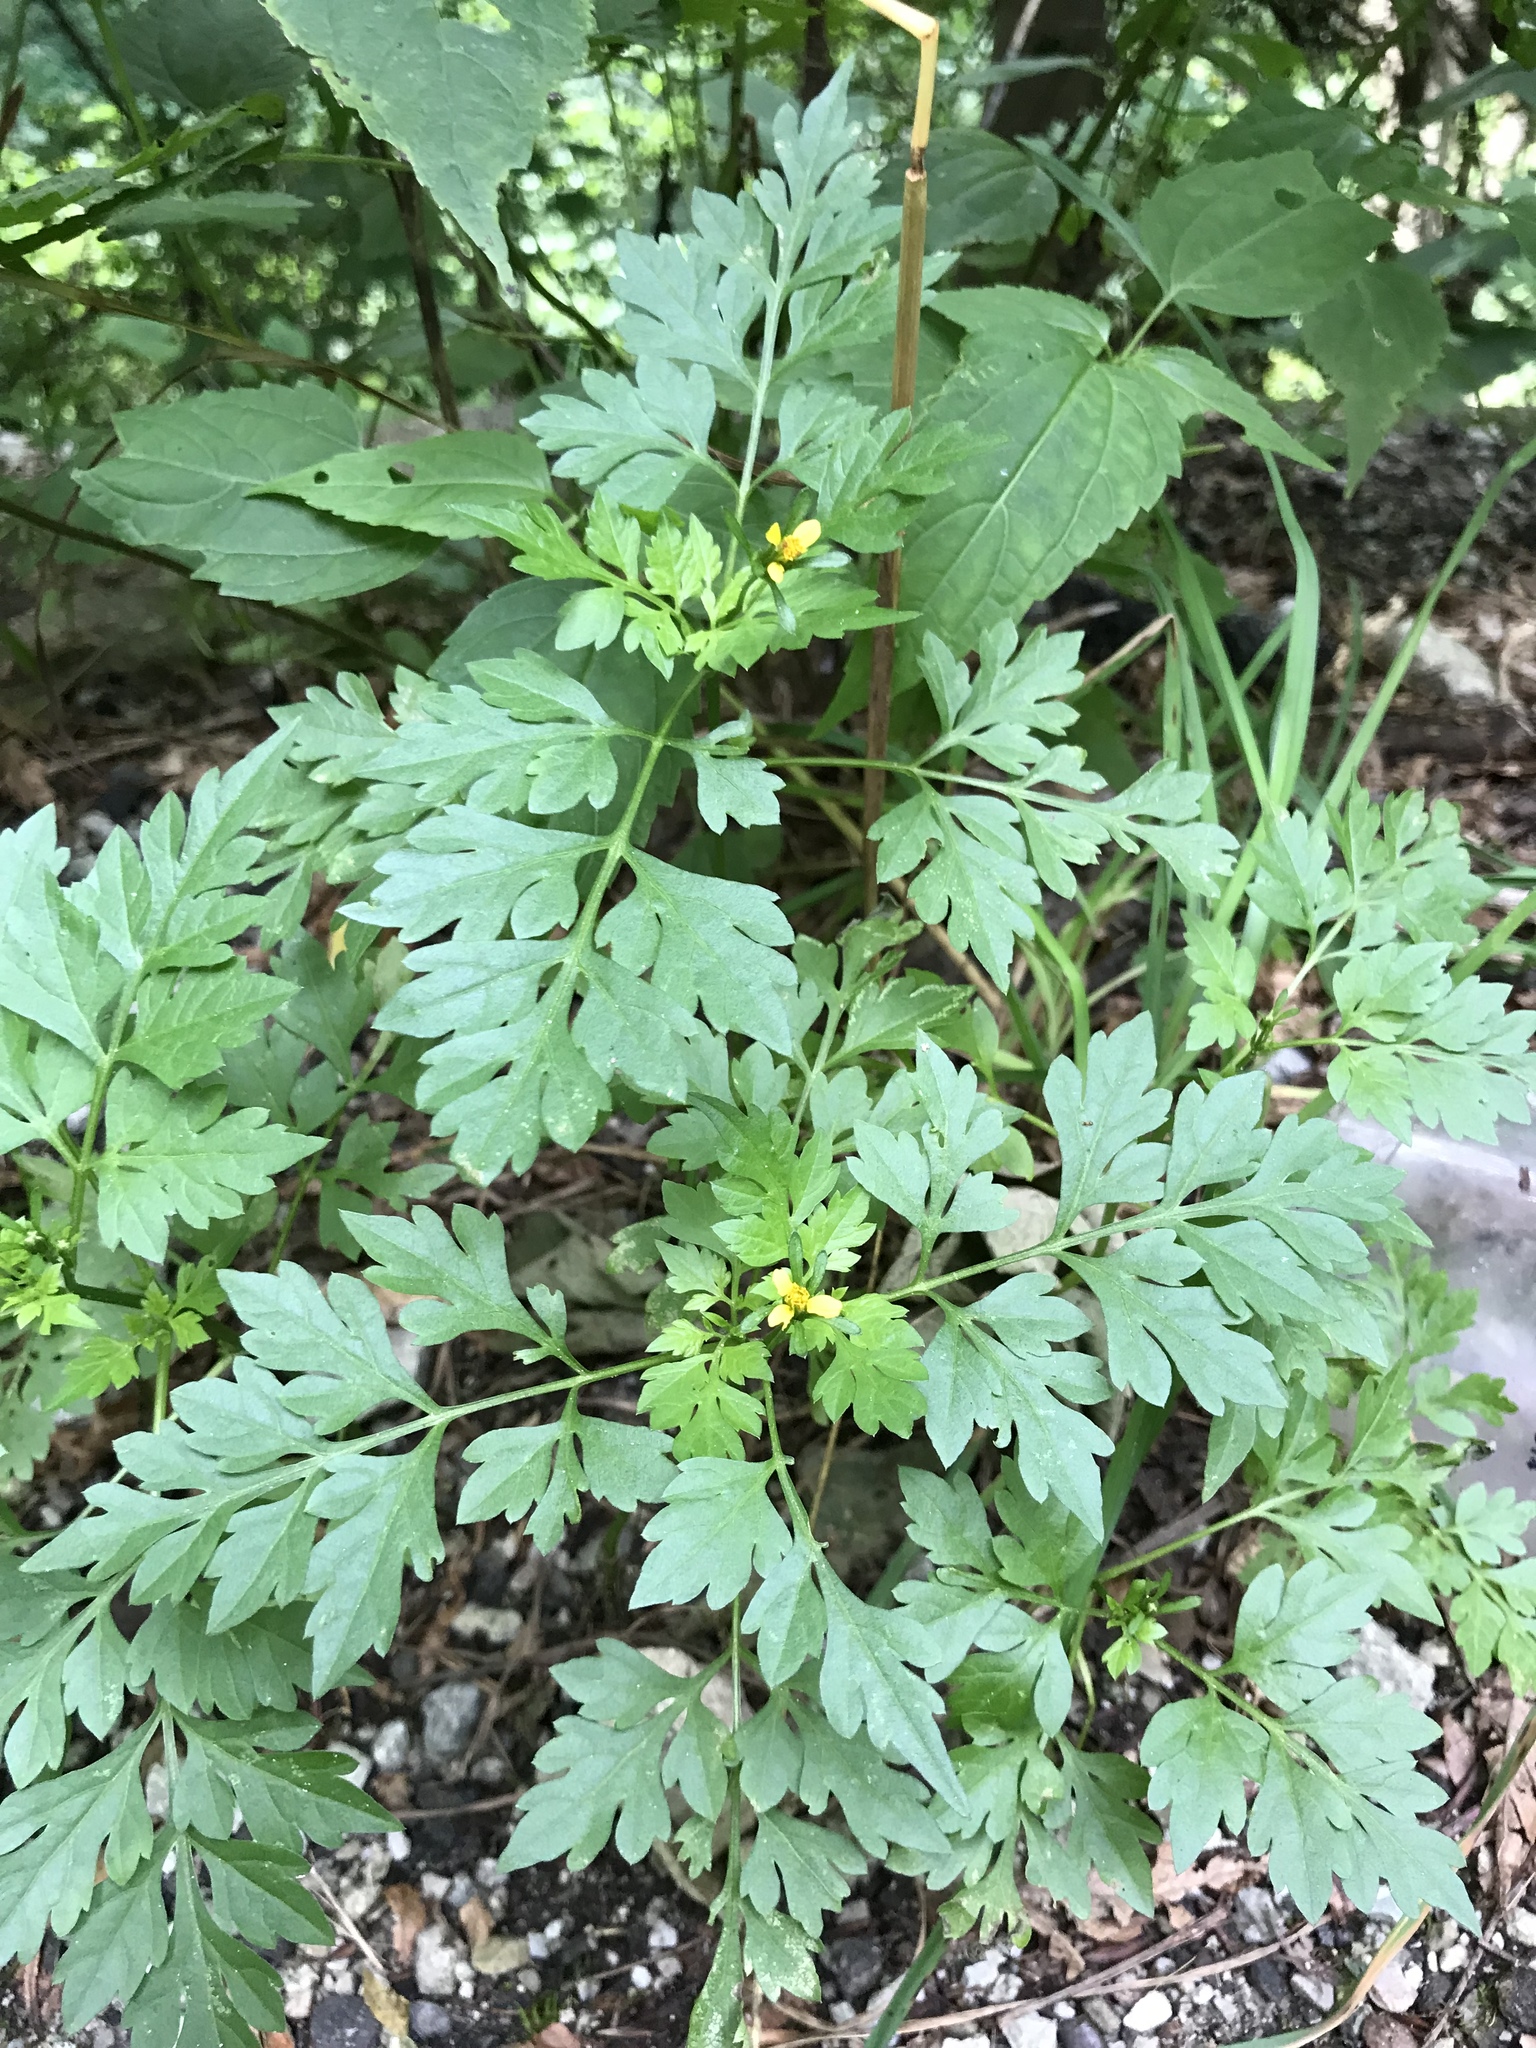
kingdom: Plantae
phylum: Tracheophyta
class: Magnoliopsida
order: Asterales
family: Asteraceae
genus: Bidens
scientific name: Bidens bipinnata
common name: Spanish-needles
